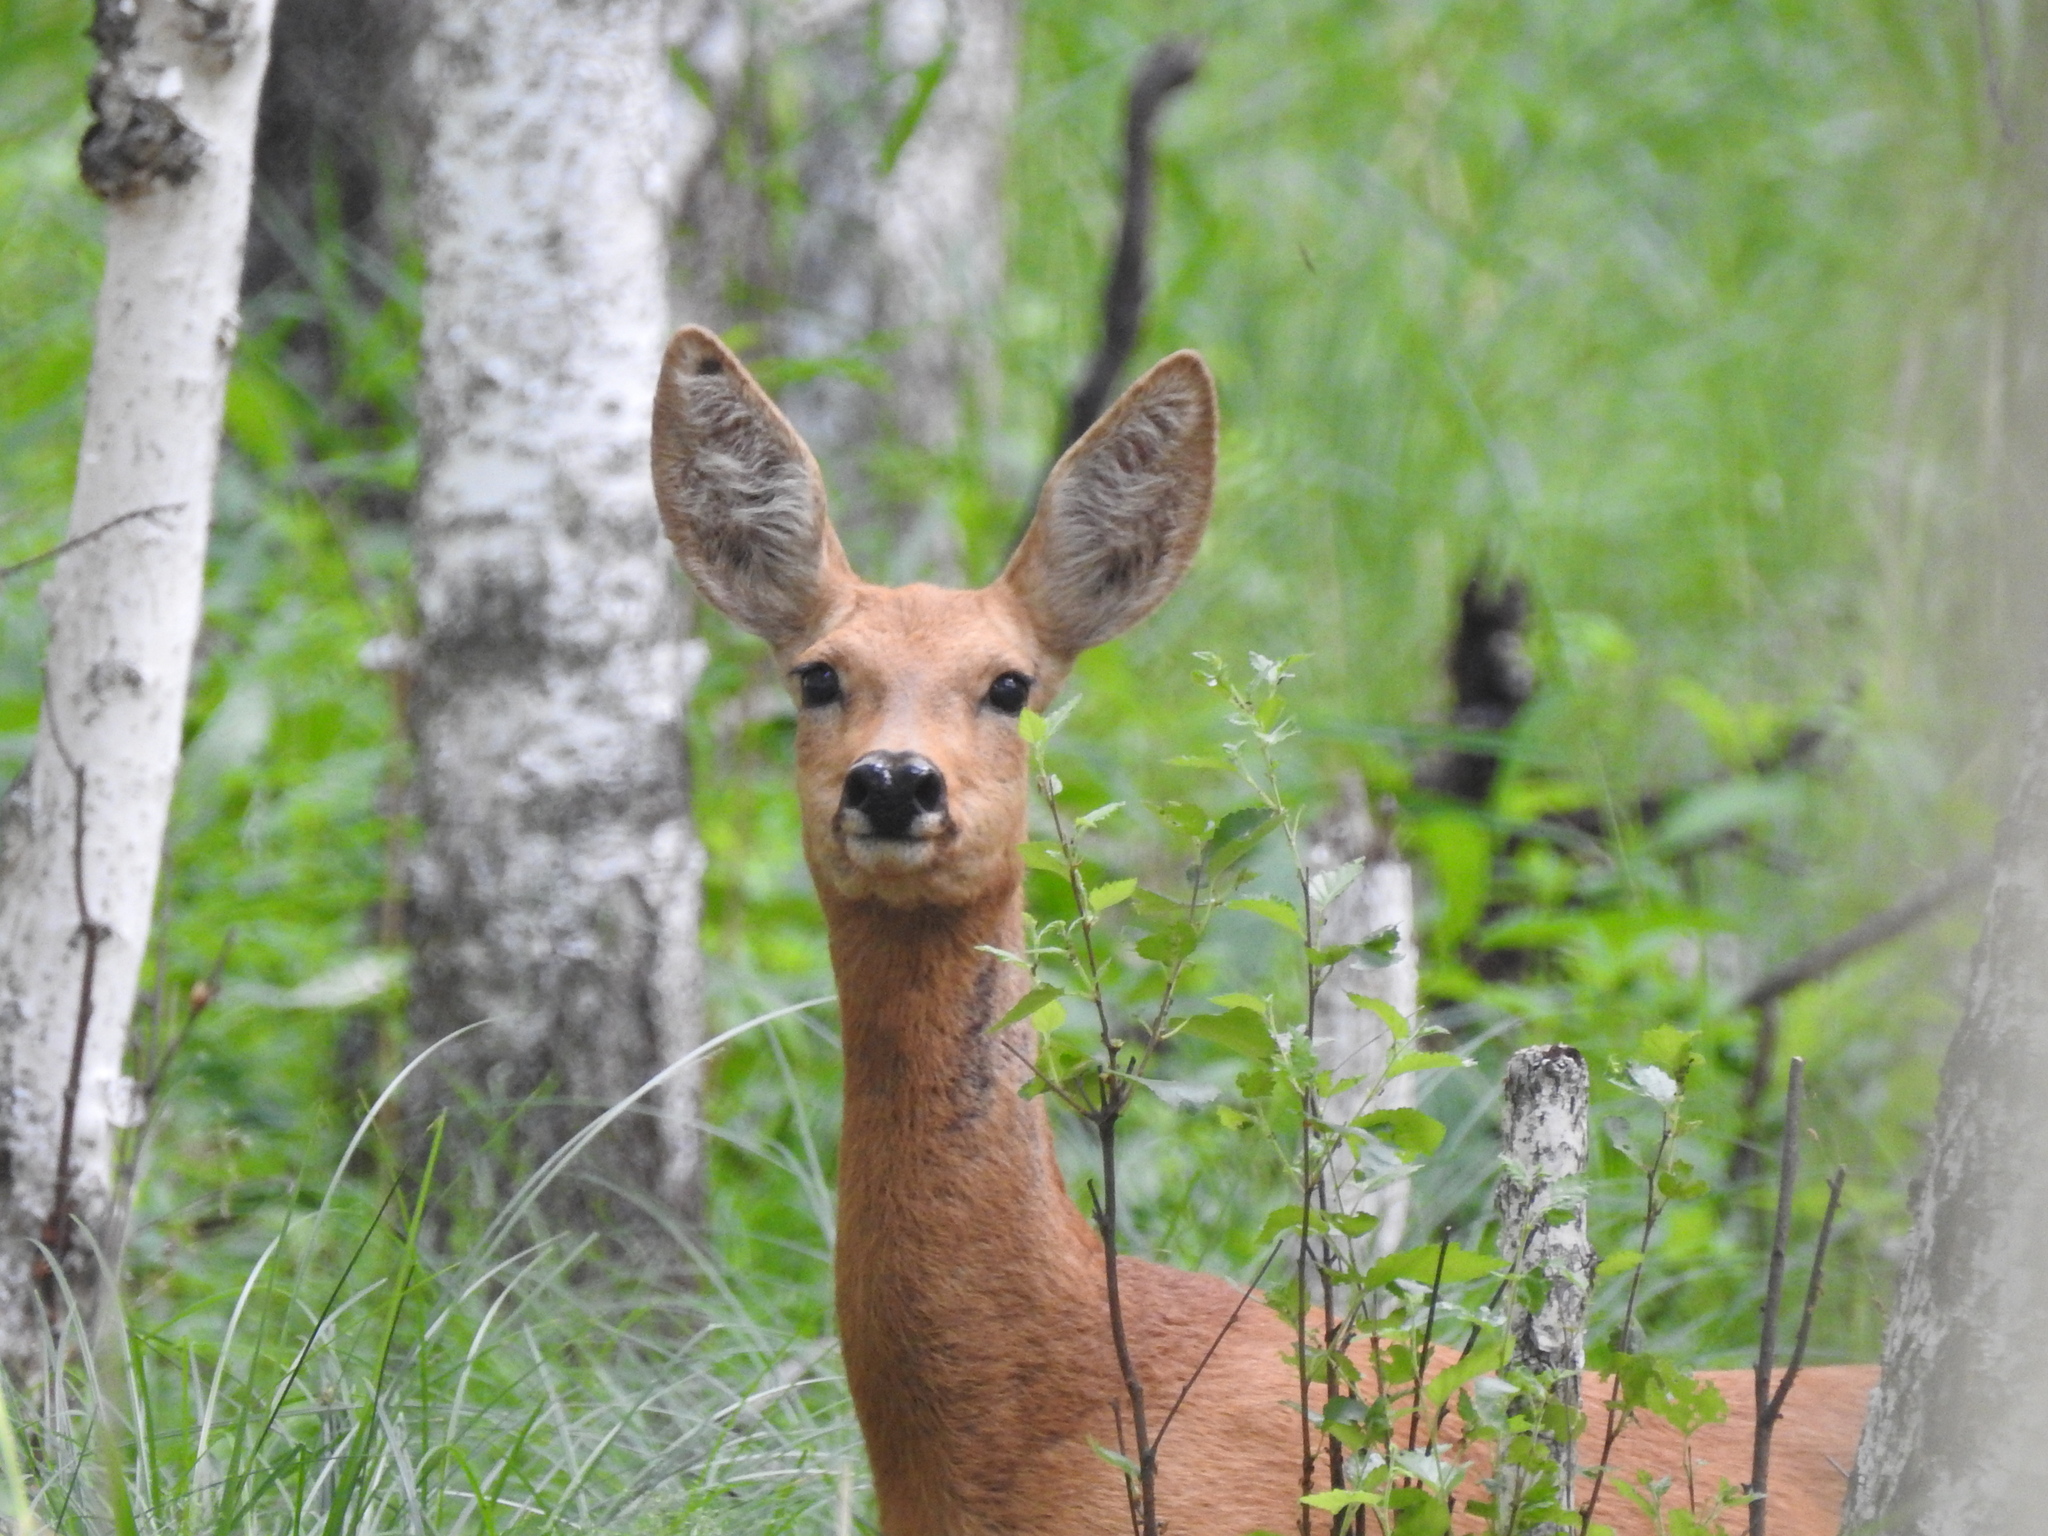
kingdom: Animalia
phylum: Chordata
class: Mammalia
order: Artiodactyla
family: Cervidae
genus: Capreolus
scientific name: Capreolus pygargus
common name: Siberian roe
